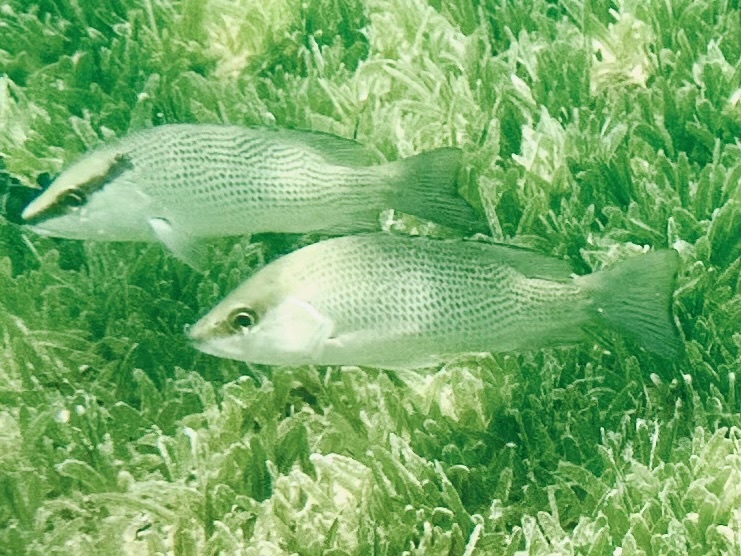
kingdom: Animalia
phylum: Chordata
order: Perciformes
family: Lutjanidae
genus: Lutjanus
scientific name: Lutjanus griseus
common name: Gray snapper
